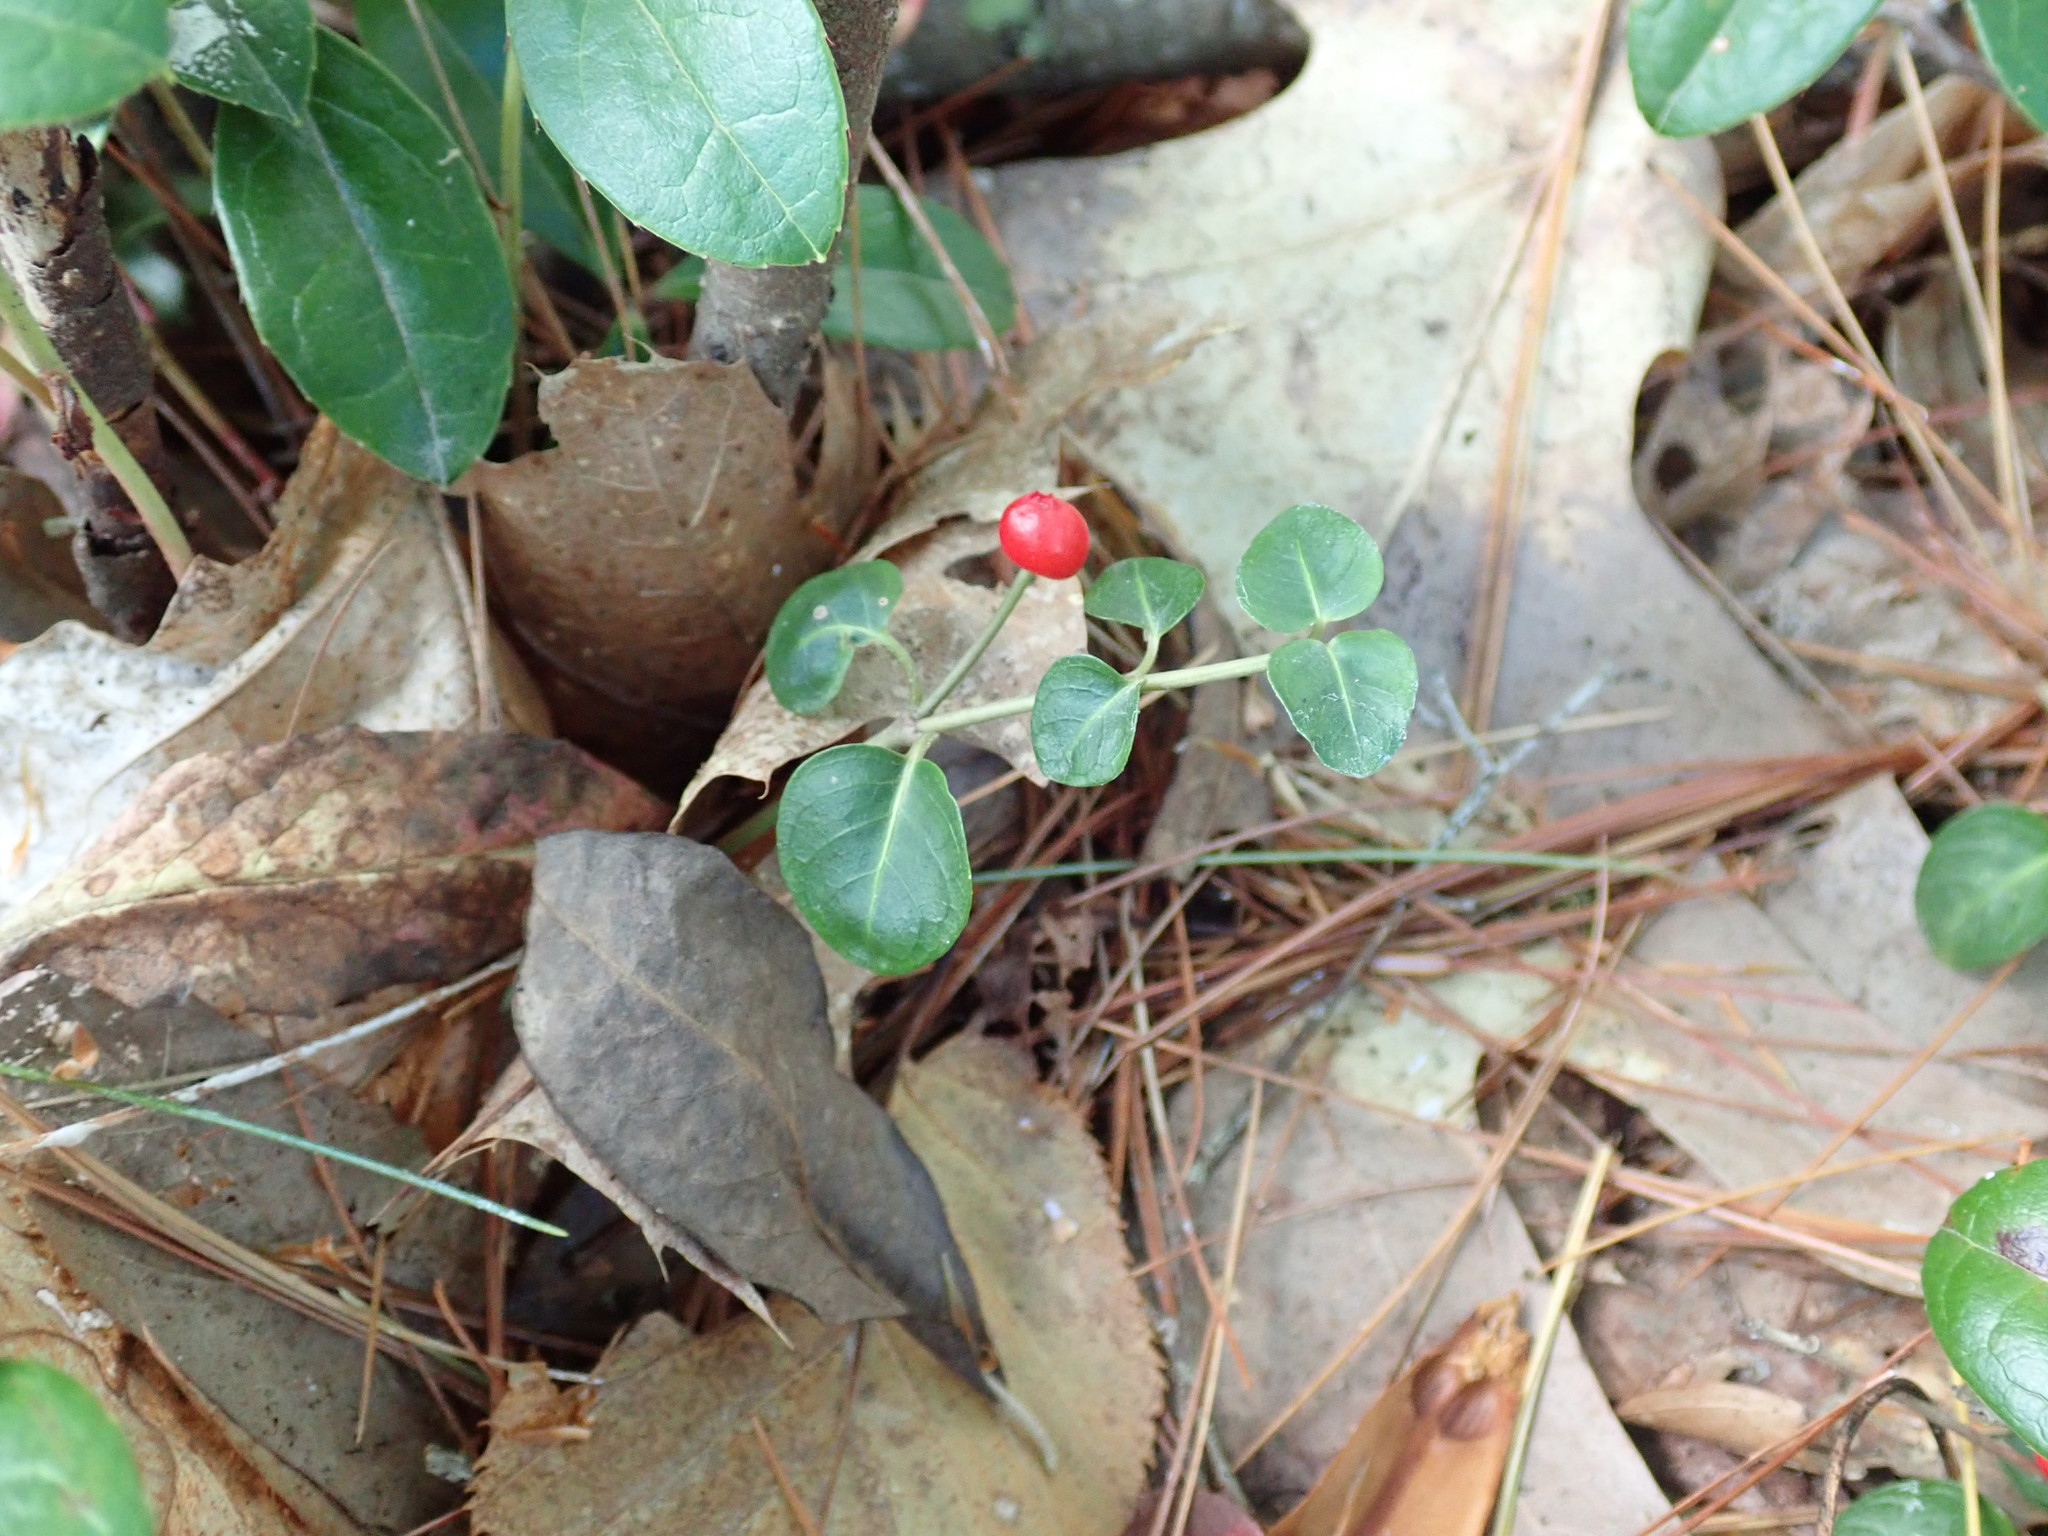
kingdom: Plantae
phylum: Tracheophyta
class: Magnoliopsida
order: Gentianales
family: Rubiaceae
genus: Mitchella
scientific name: Mitchella repens
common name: Partridge-berry
